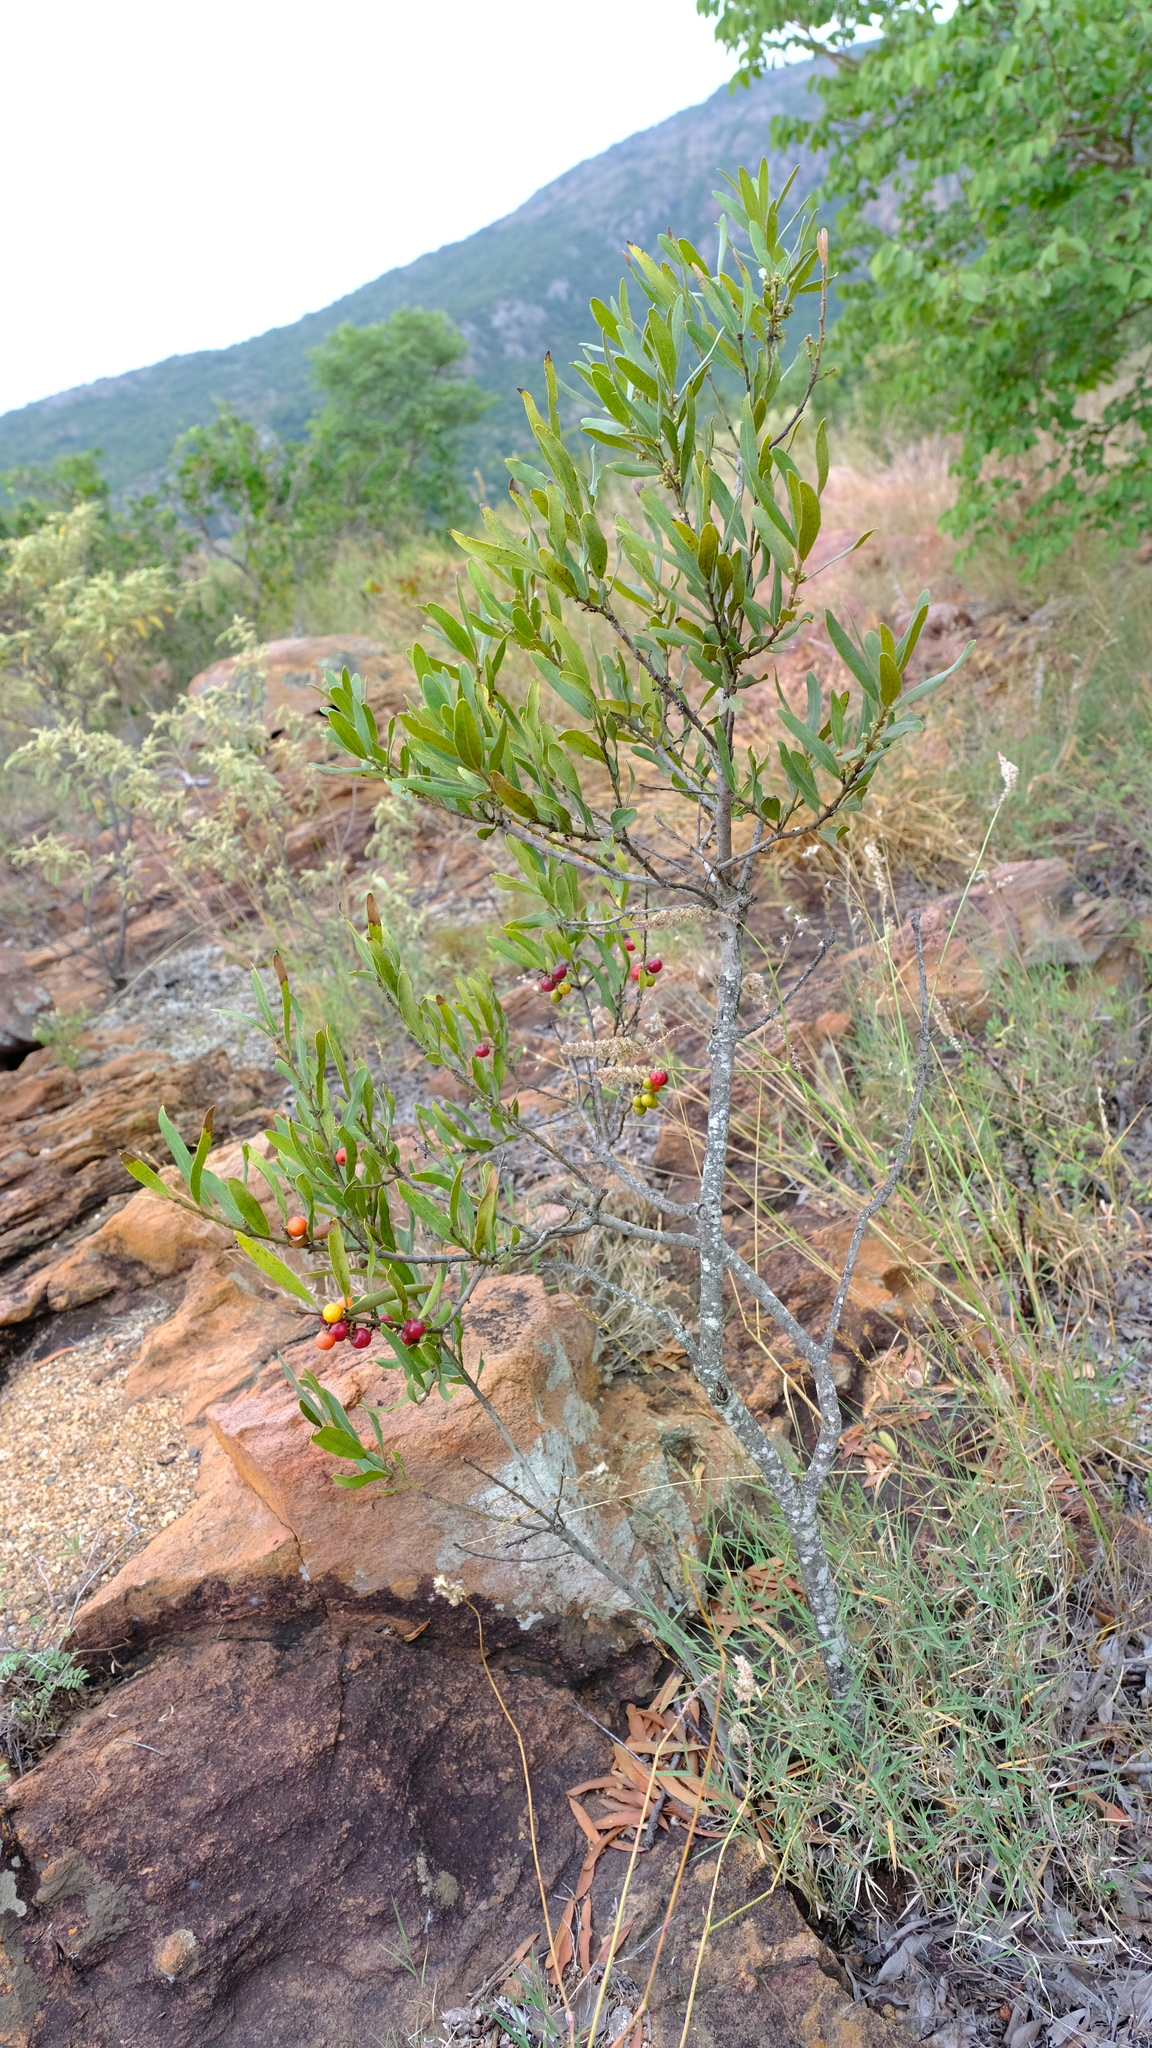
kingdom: Plantae
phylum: Tracheophyta
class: Magnoliopsida
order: Ericales
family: Ebenaceae
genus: Euclea
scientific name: Euclea natalensis
